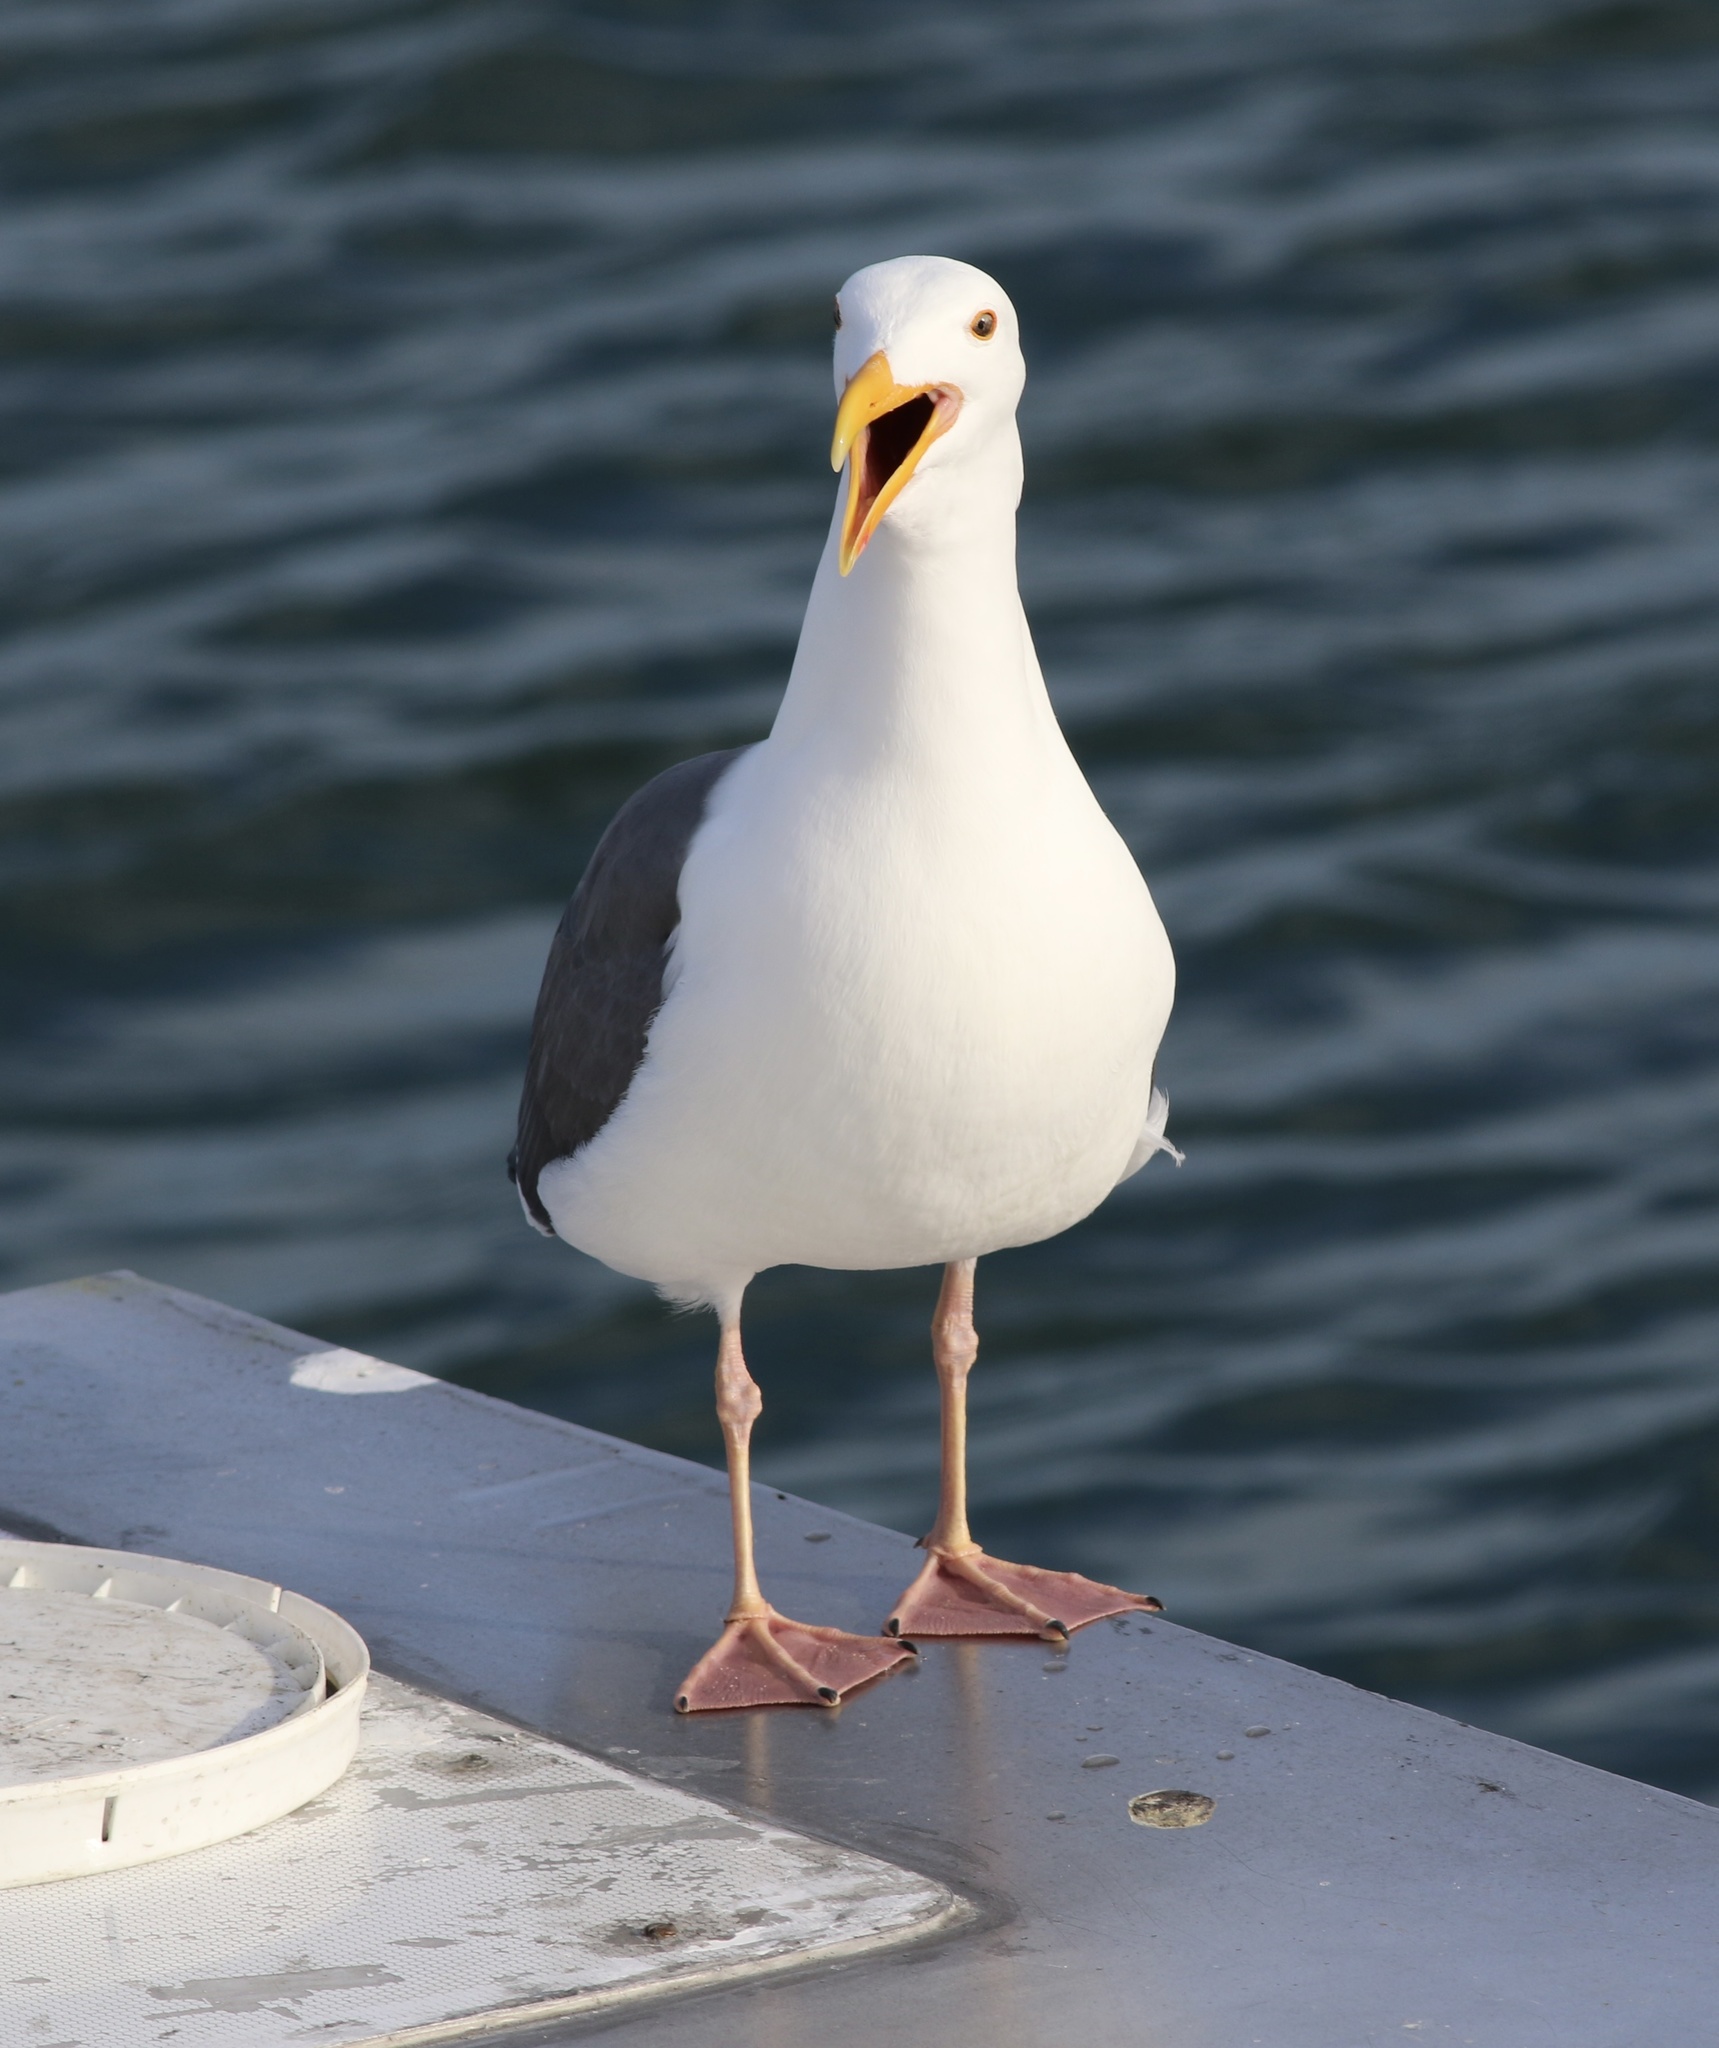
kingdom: Animalia
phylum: Chordata
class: Aves
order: Charadriiformes
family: Laridae
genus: Larus
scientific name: Larus occidentalis
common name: Western gull
